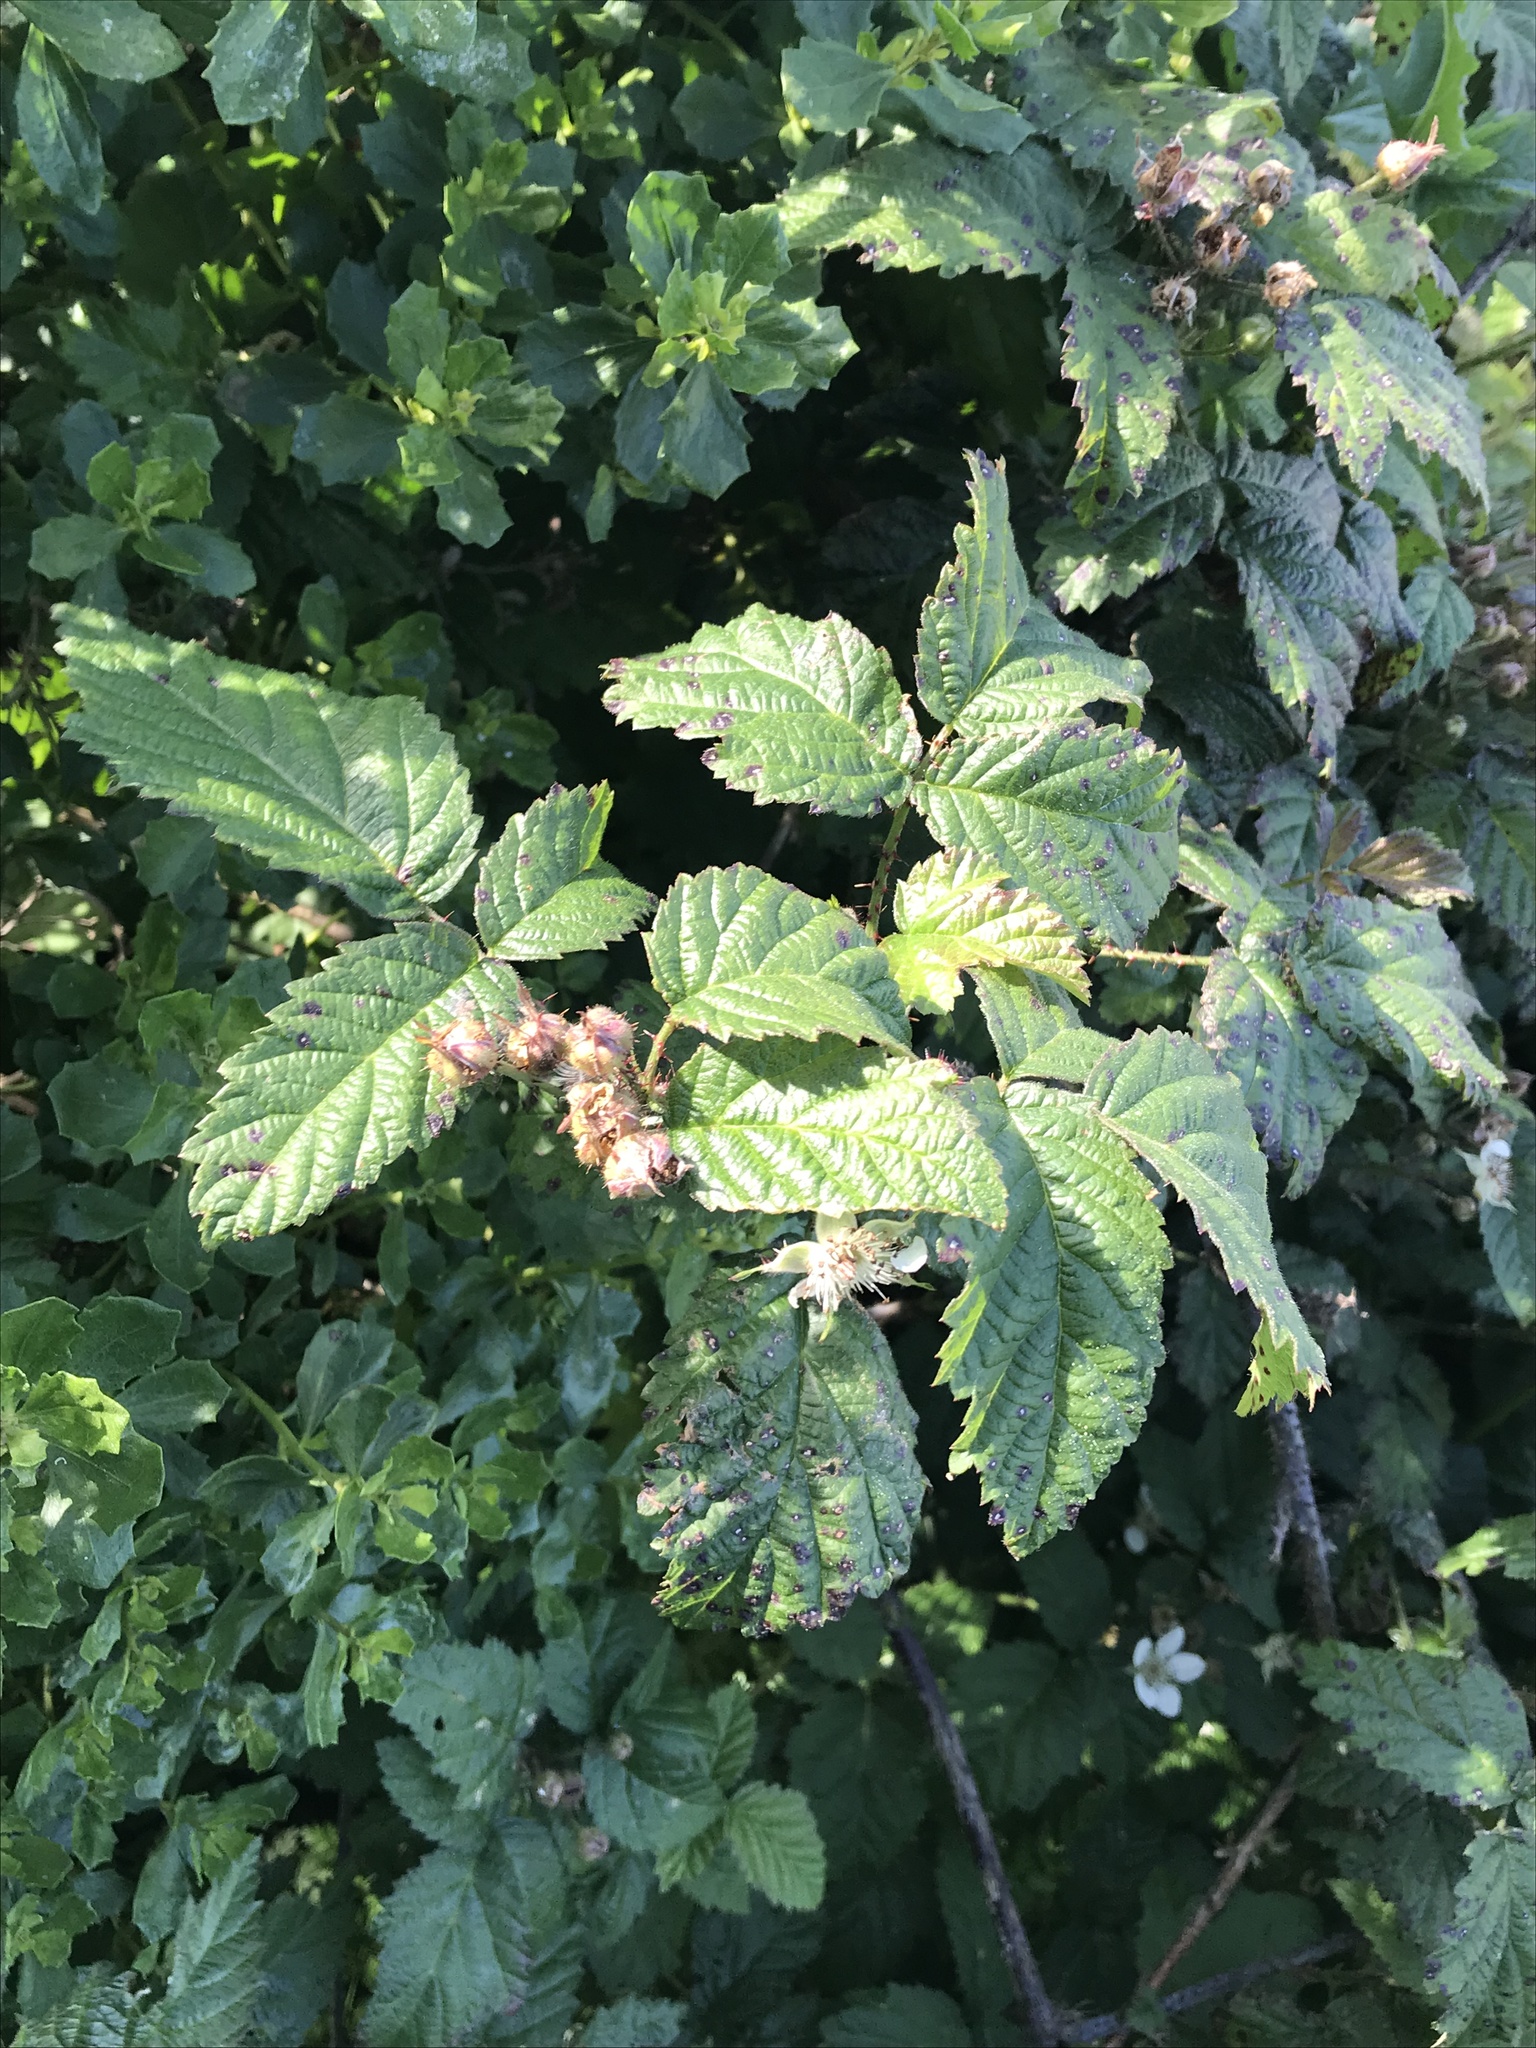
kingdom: Plantae
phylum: Tracheophyta
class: Magnoliopsida
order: Rosales
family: Rosaceae
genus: Rubus
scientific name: Rubus ursinus
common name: Pacific blackberry
